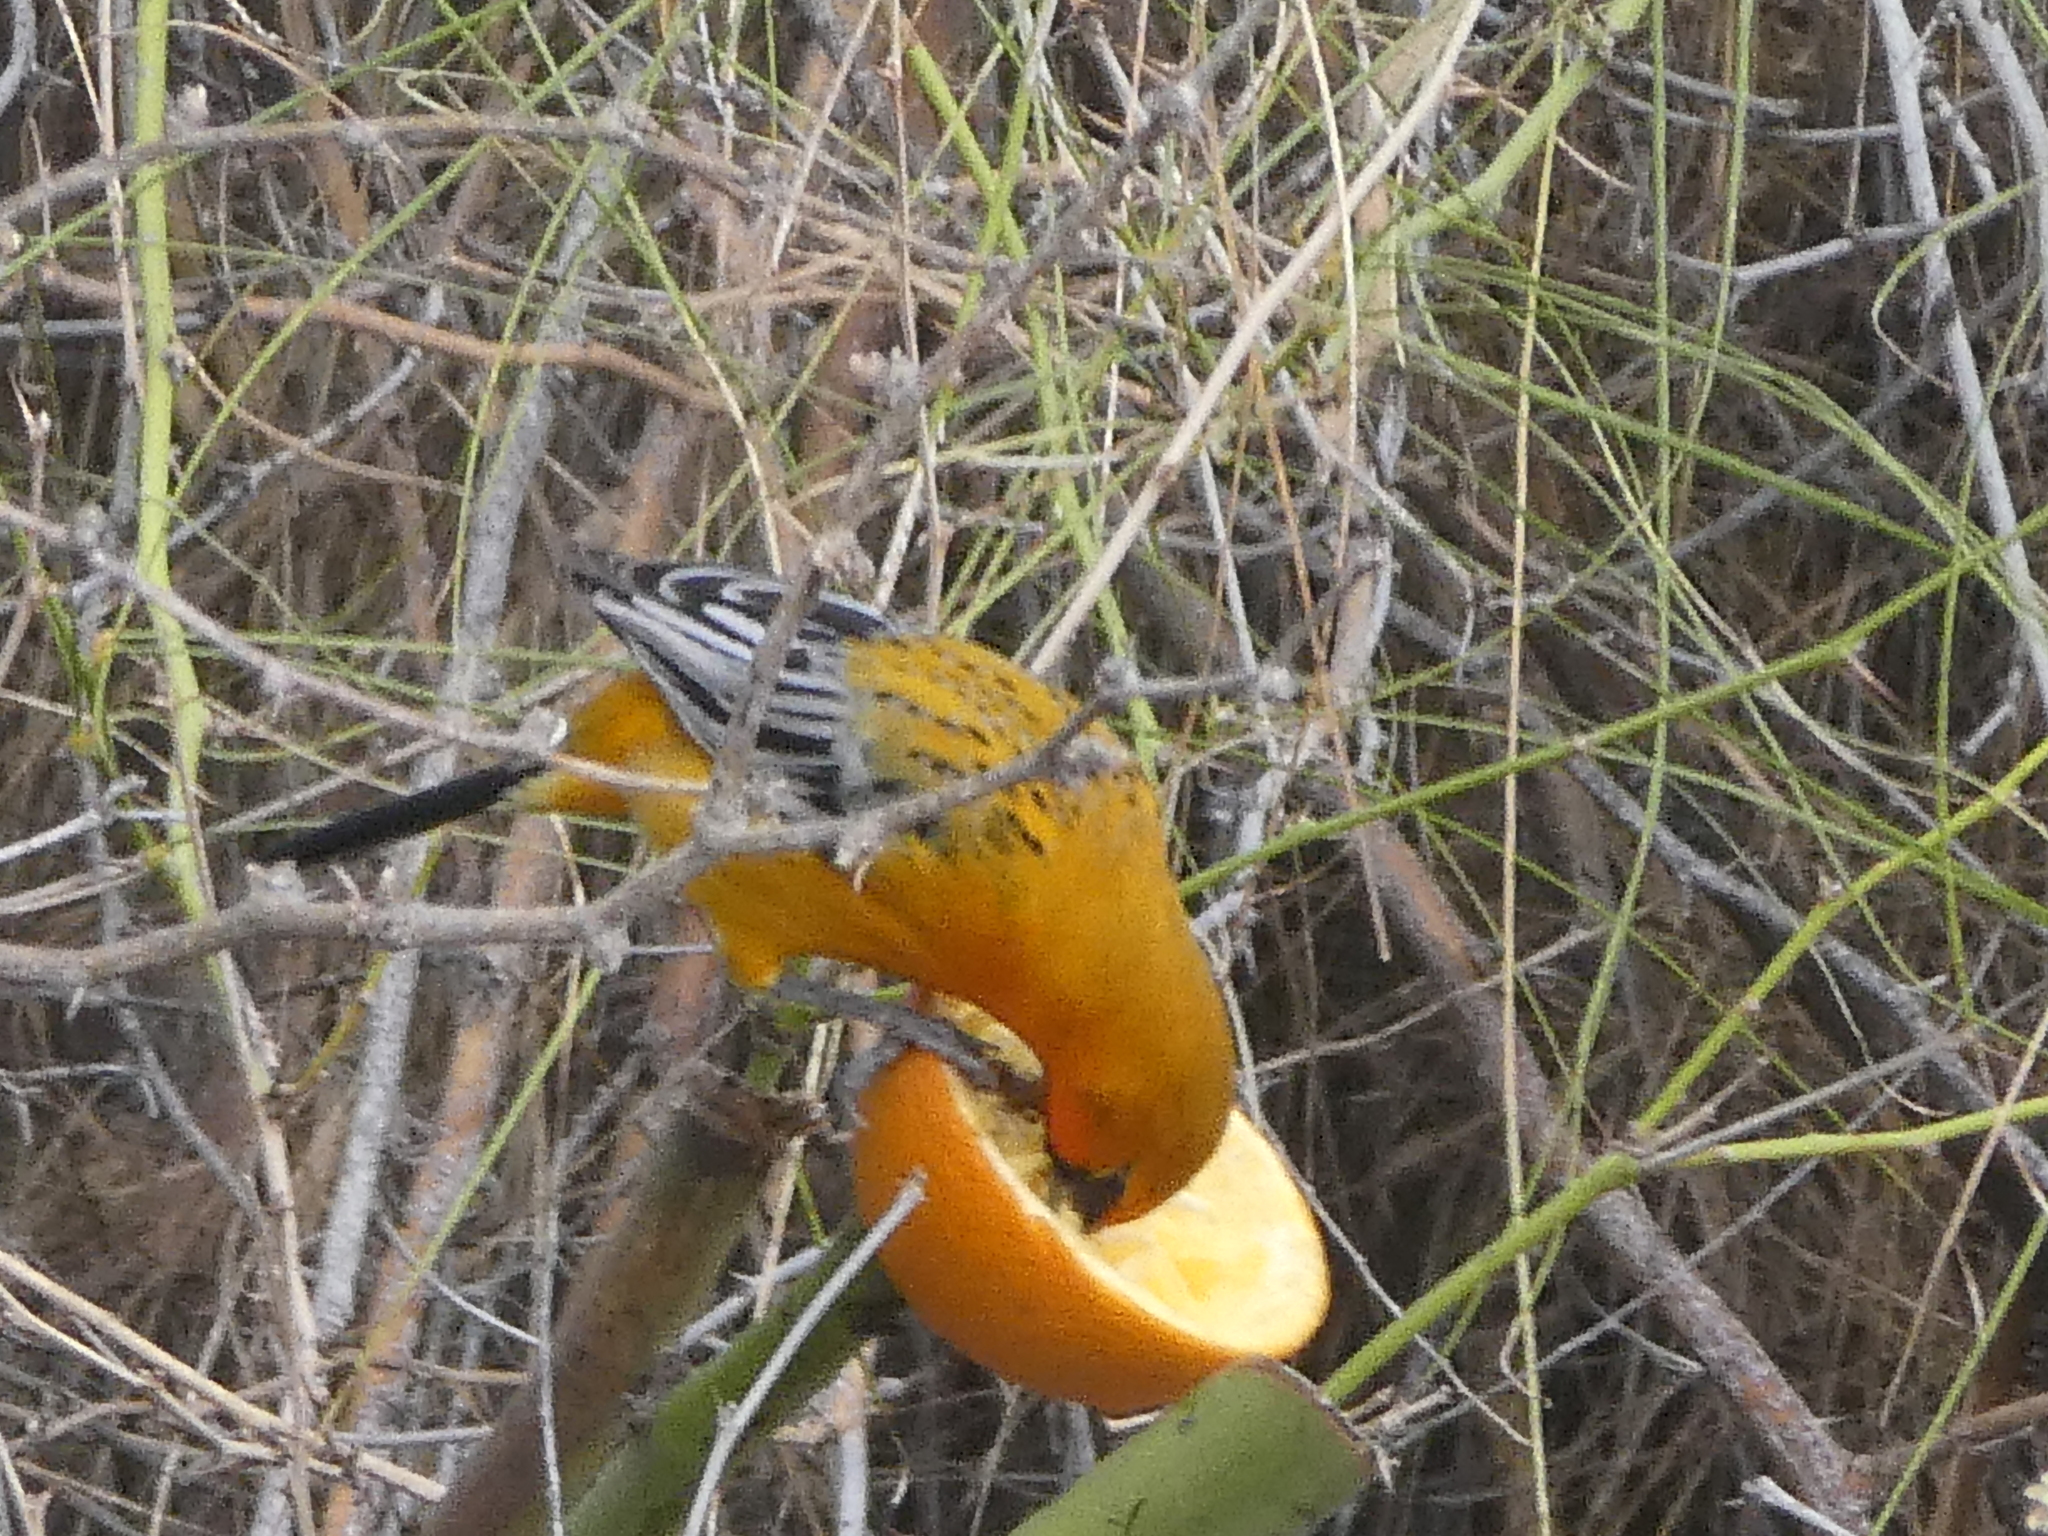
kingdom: Animalia
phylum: Chordata
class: Aves
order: Passeriformes
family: Icteridae
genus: Icterus
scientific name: Icterus pustulatus
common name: Streak-backed oriole
